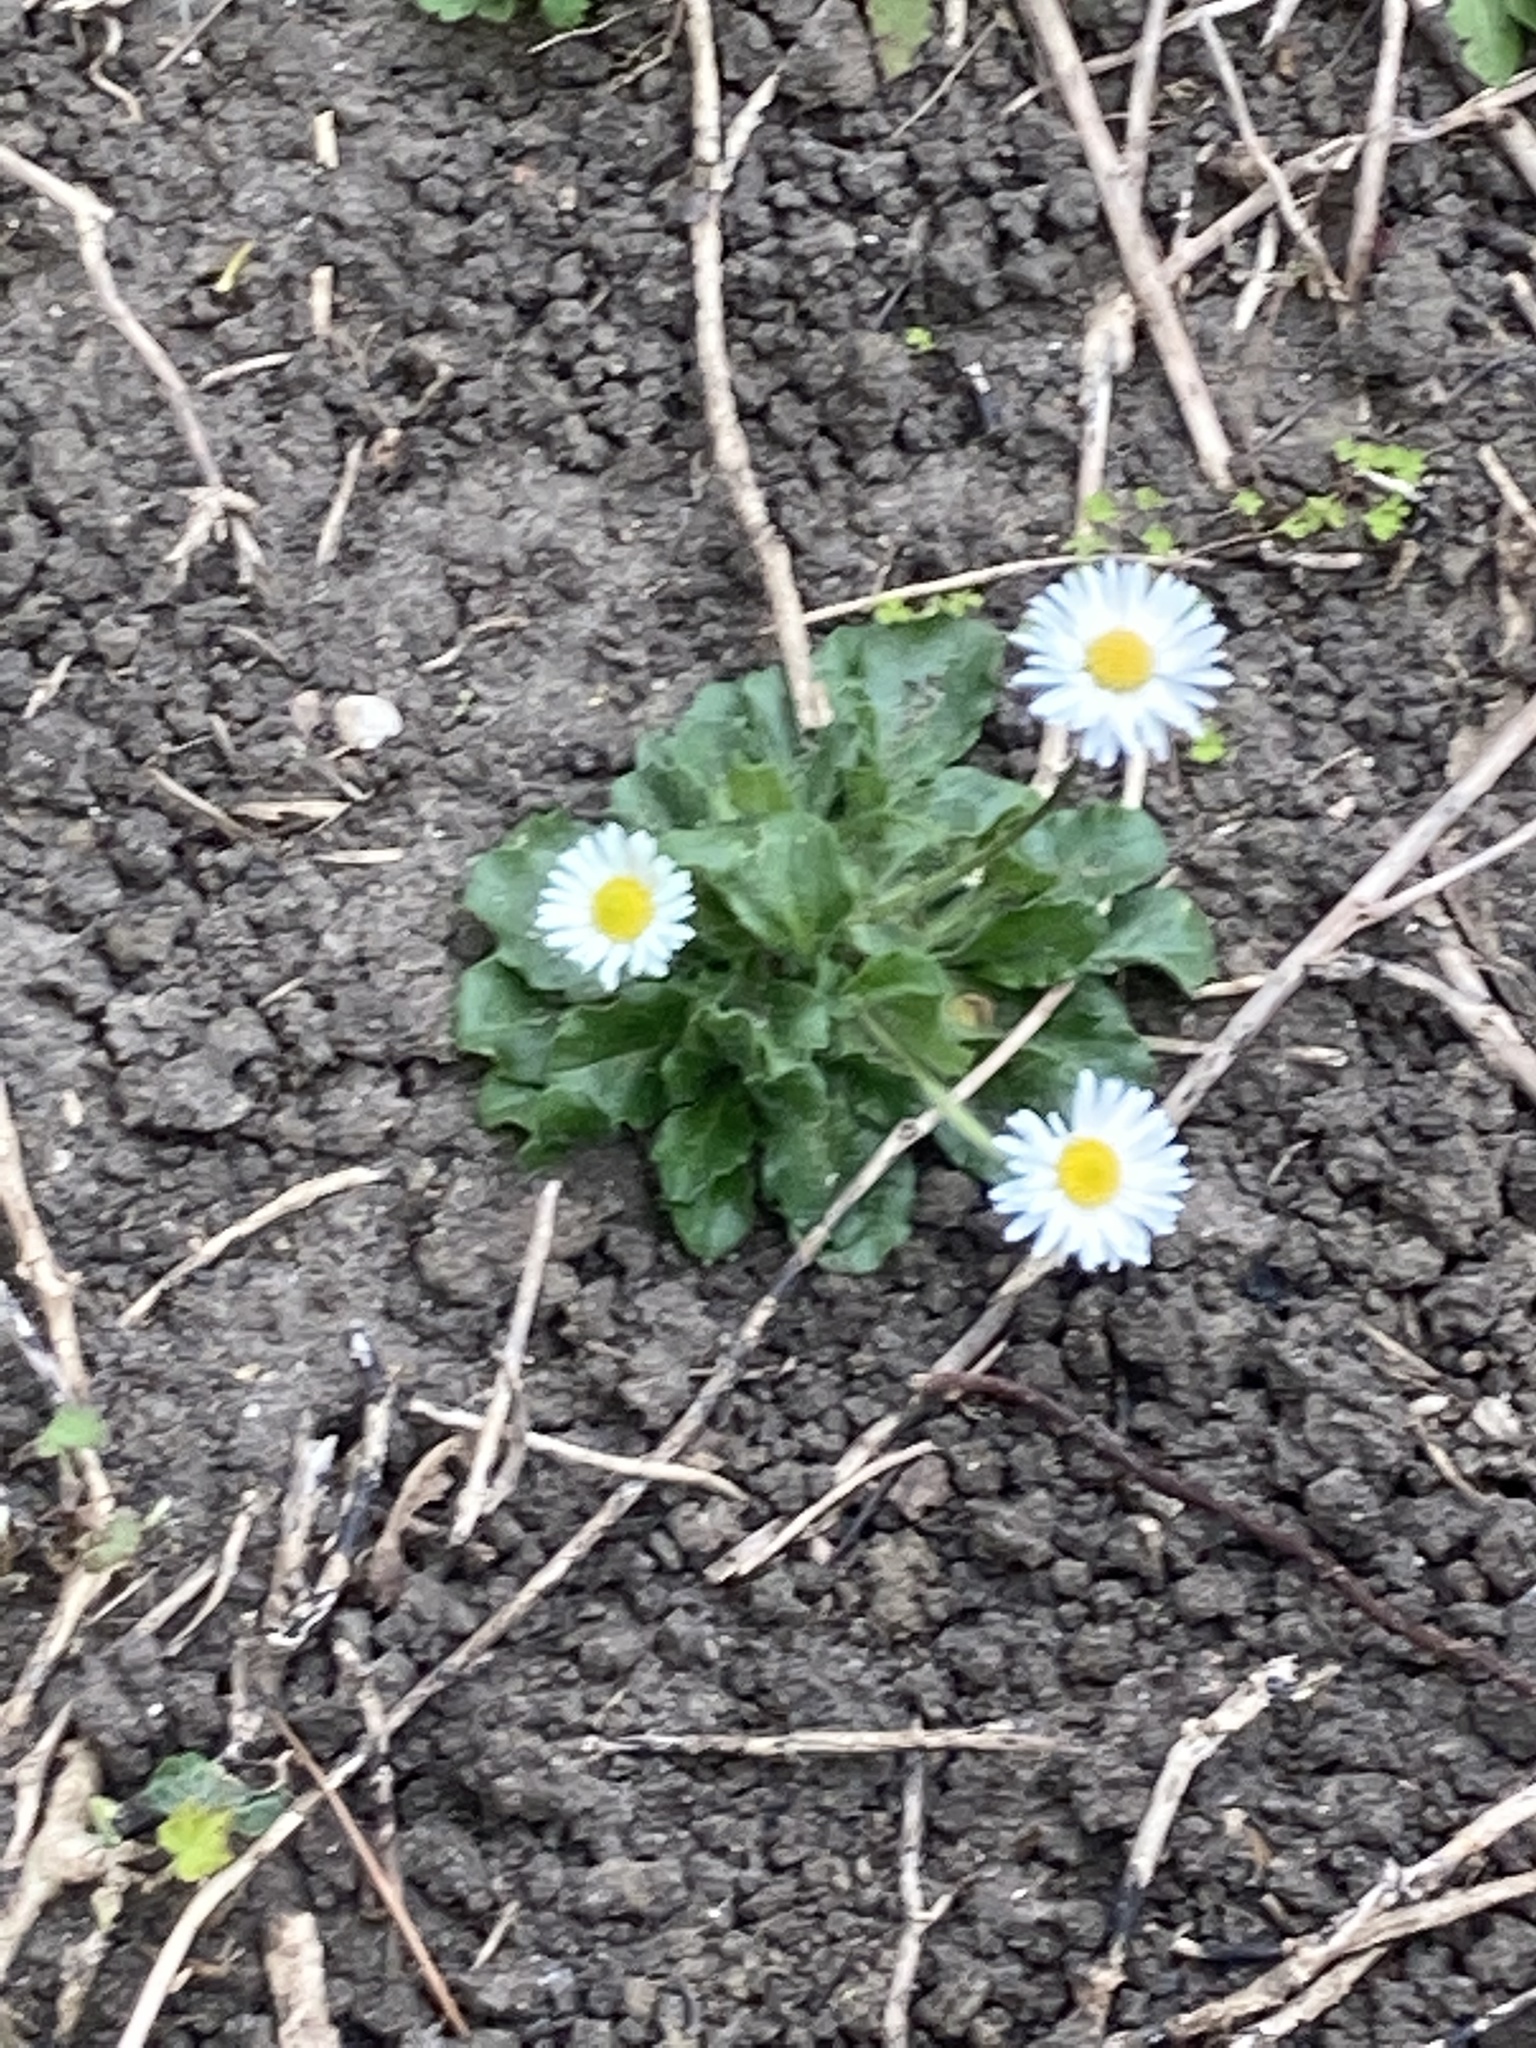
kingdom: Plantae
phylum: Tracheophyta
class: Magnoliopsida
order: Asterales
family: Asteraceae
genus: Bellis
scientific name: Bellis perennis
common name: Lawndaisy
